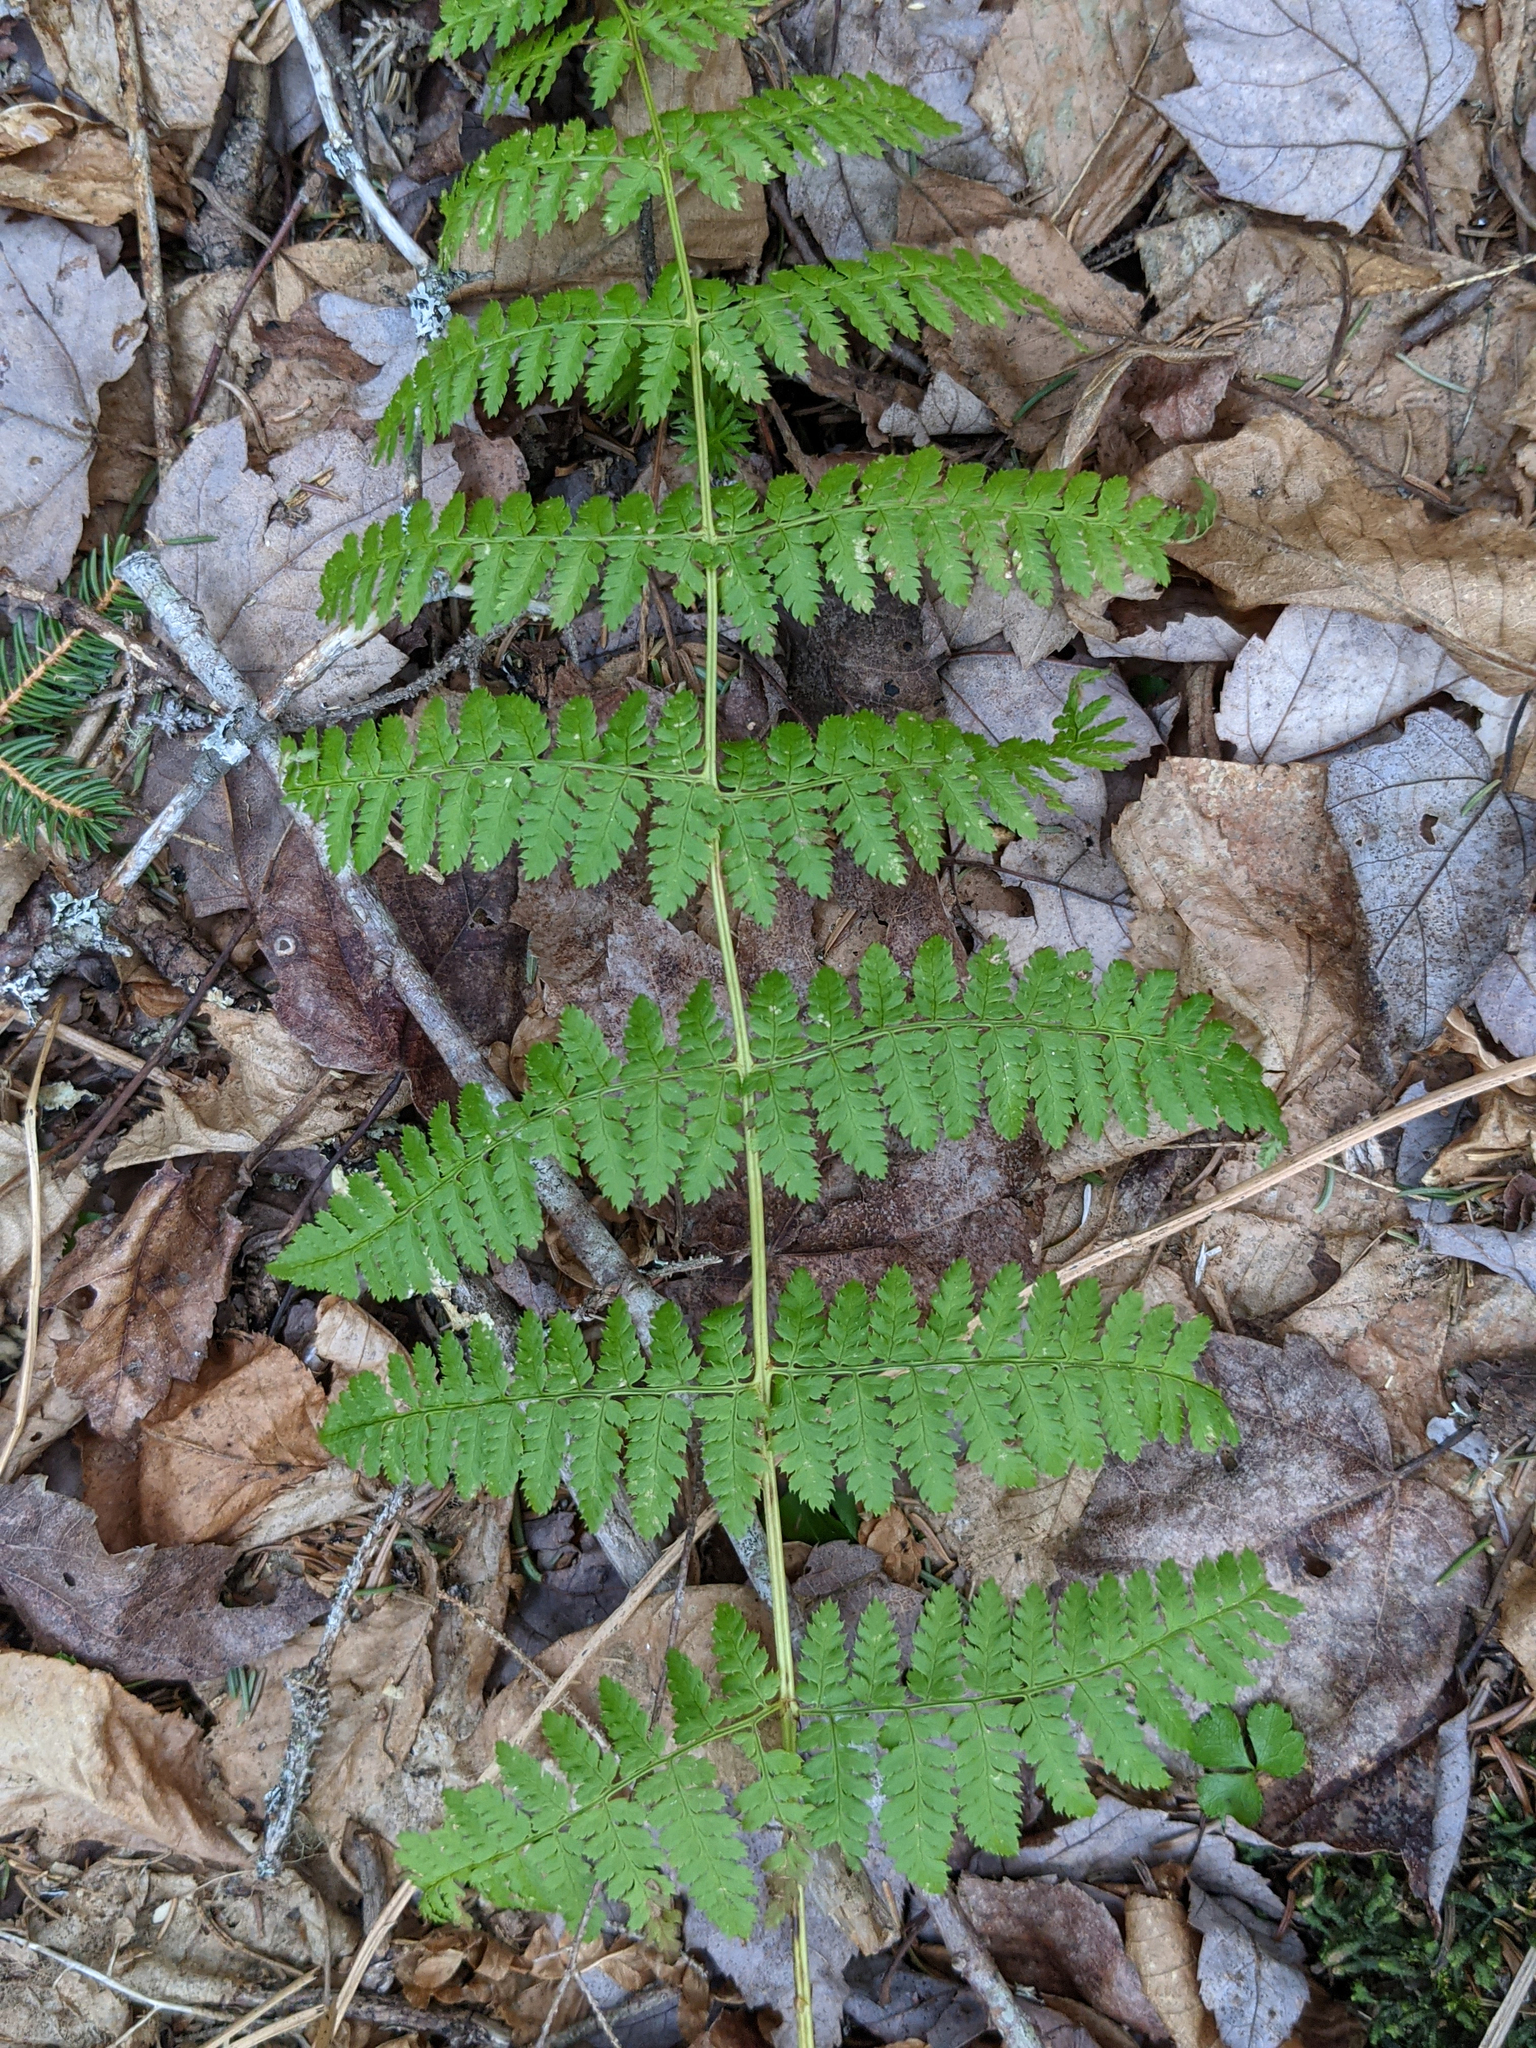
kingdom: Plantae
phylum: Tracheophyta
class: Polypodiopsida
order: Polypodiales
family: Dryopteridaceae
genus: Dryopteris
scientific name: Dryopteris intermedia
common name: Evergreen wood fern
